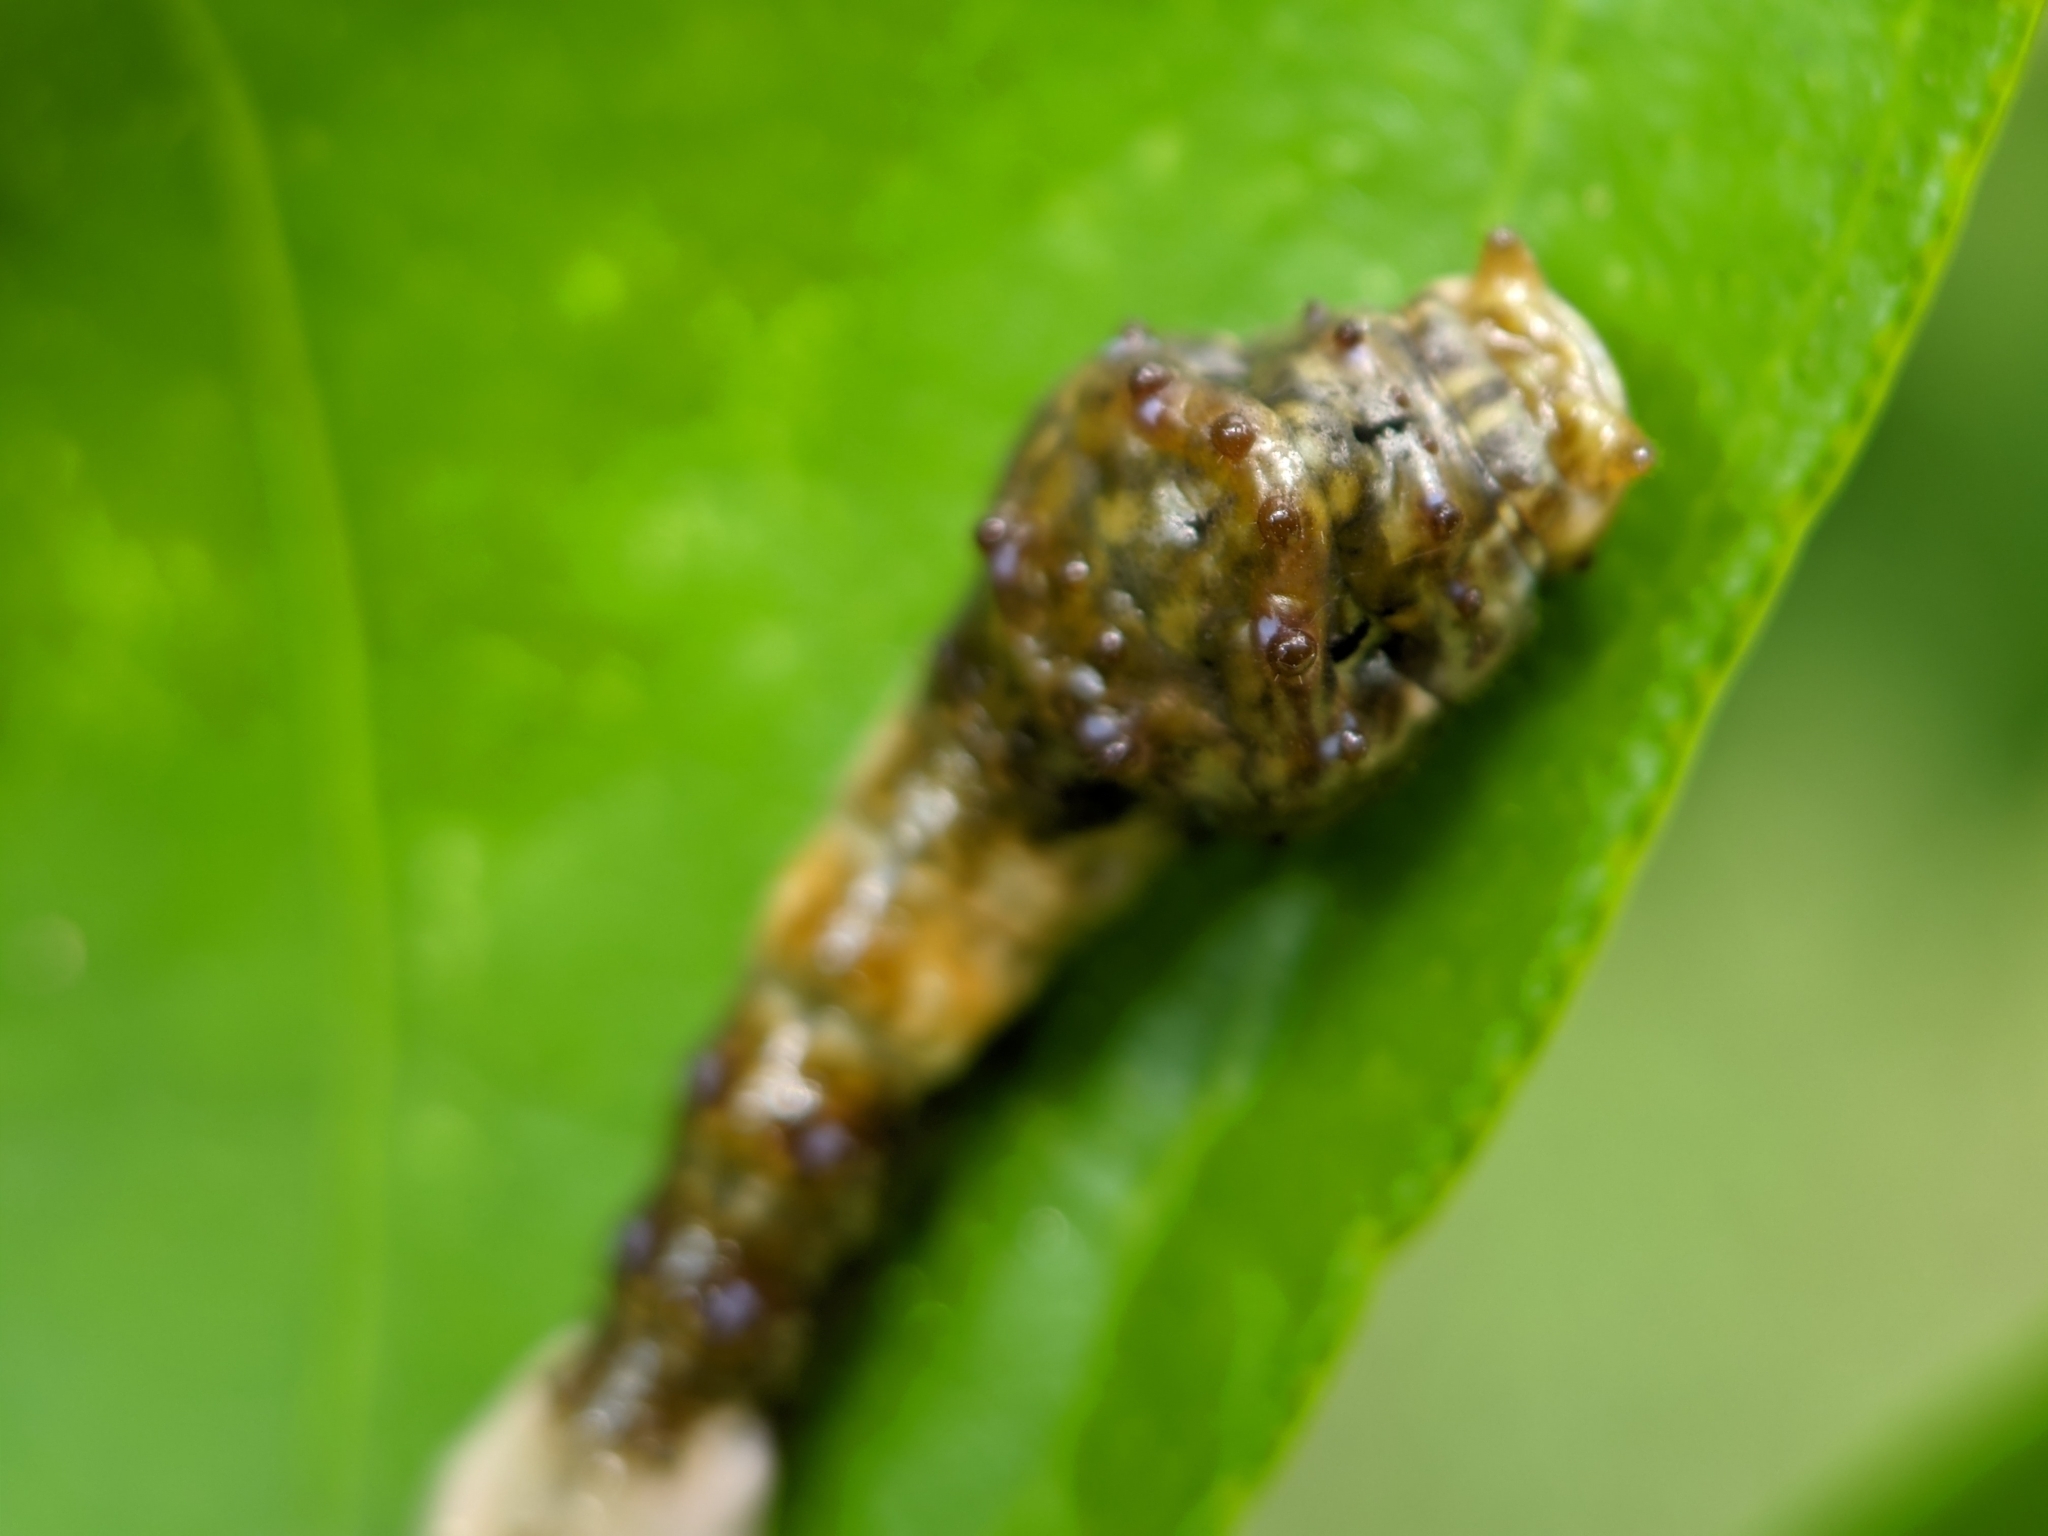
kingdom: Animalia
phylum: Arthropoda
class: Insecta
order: Lepidoptera
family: Papilionidae
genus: Papilio
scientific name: Papilio cresphontes
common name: Giant swallowtail
